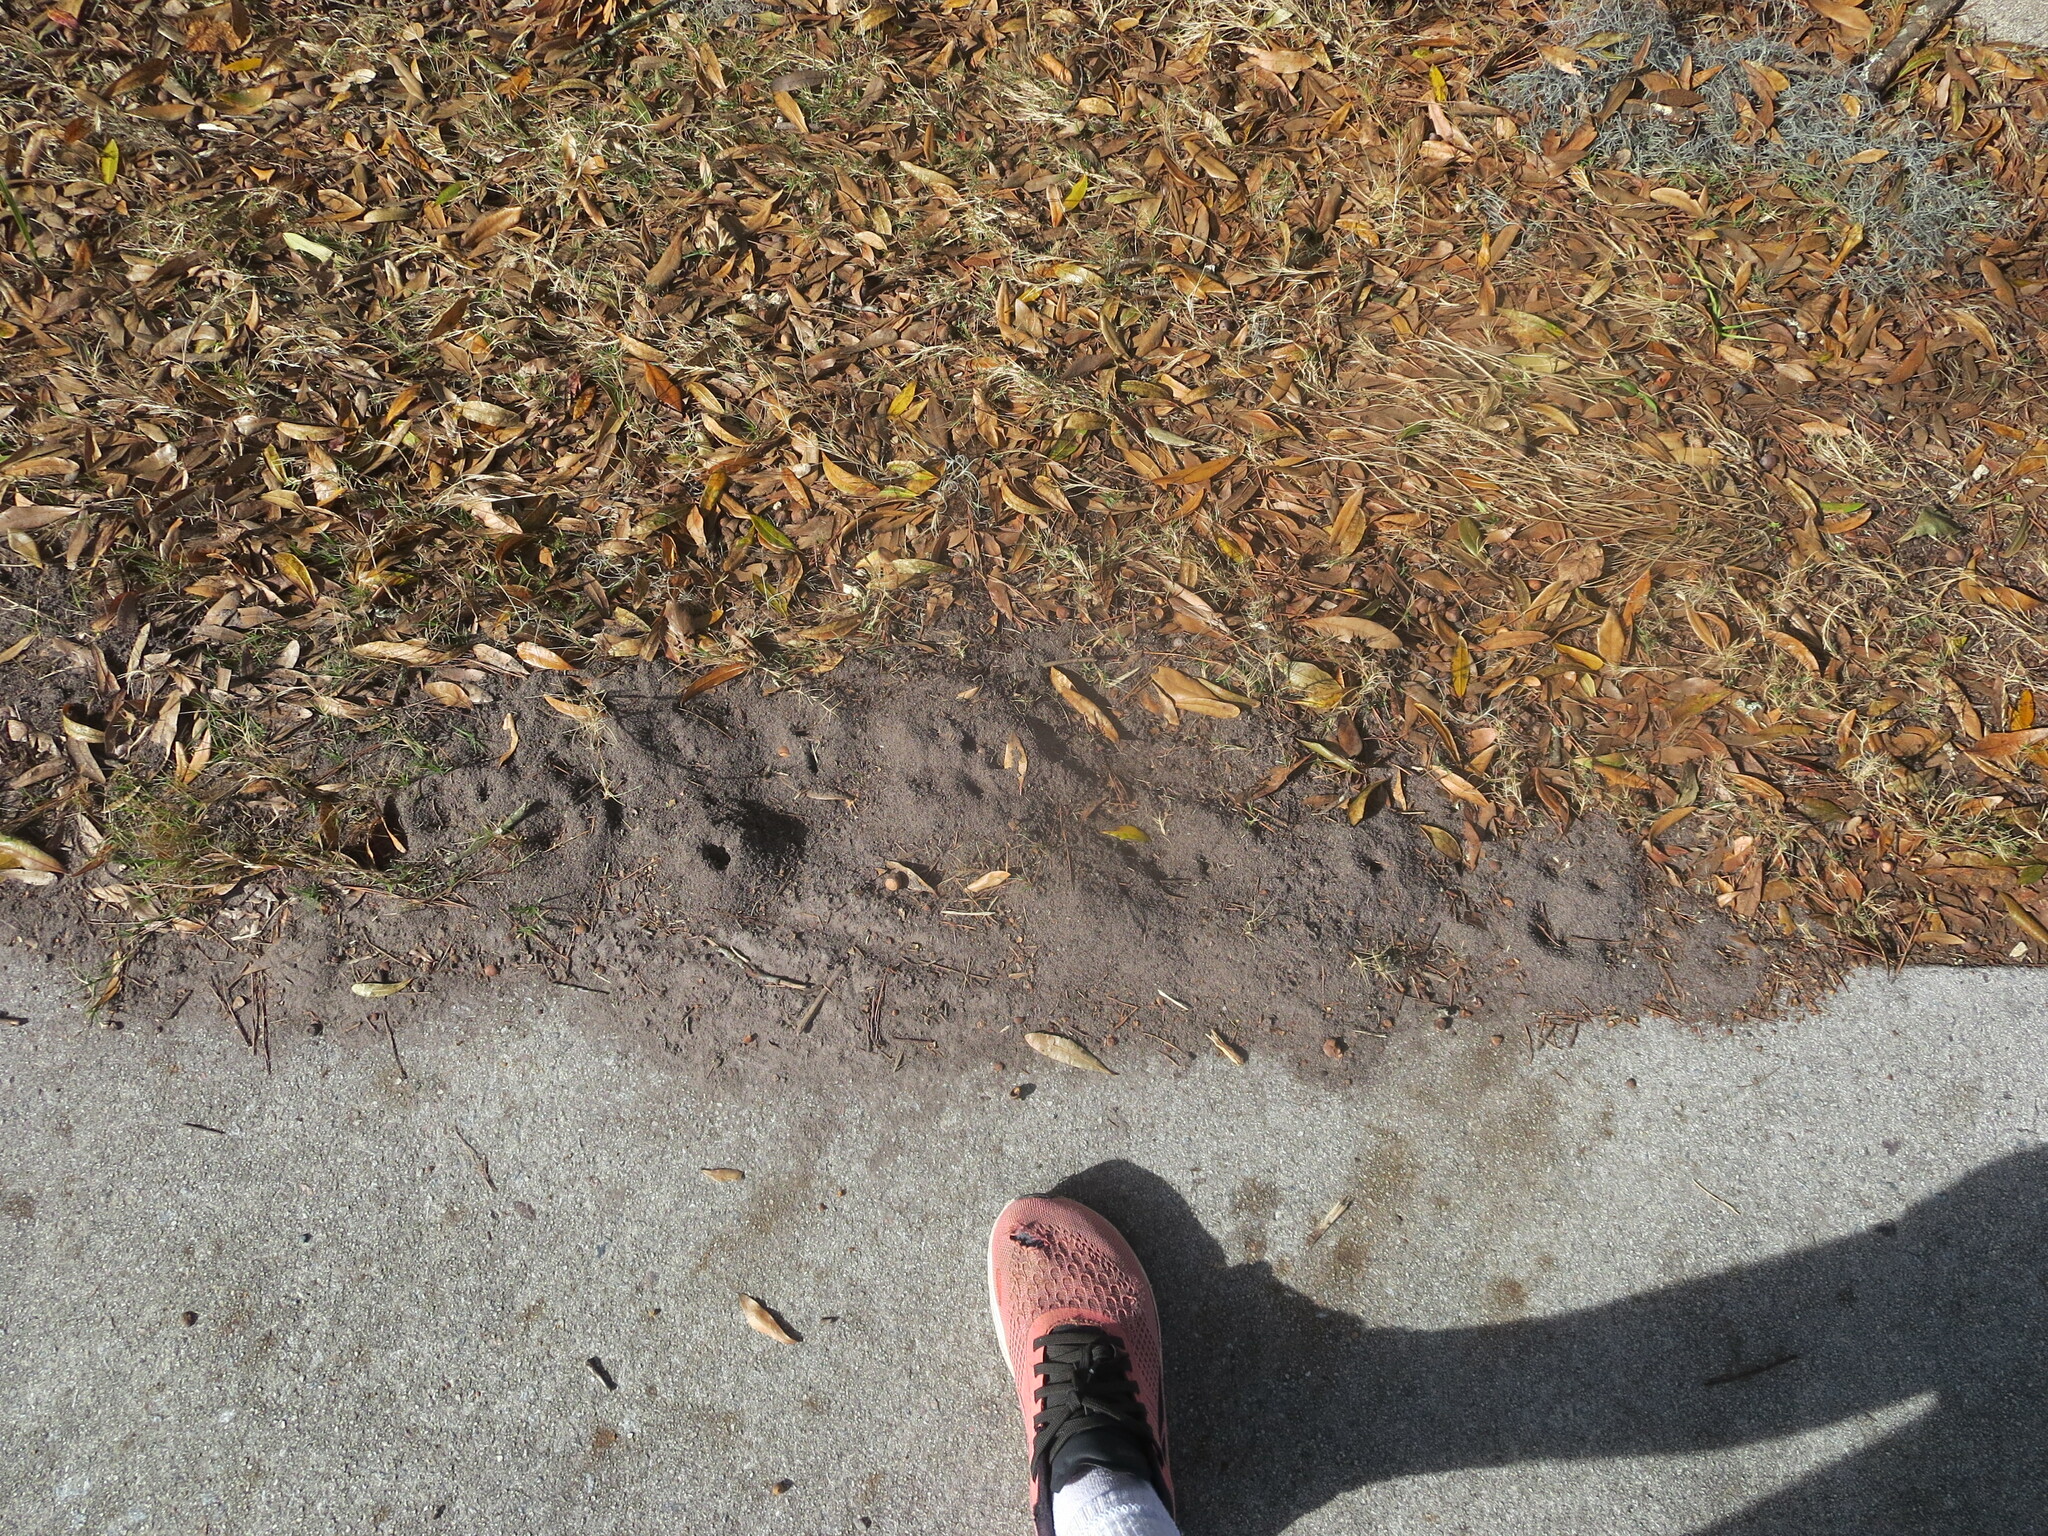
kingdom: Animalia
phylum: Arthropoda
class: Insecta
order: Hymenoptera
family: Formicidae
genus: Solenopsis
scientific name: Solenopsis invicta
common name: Red imported fire ant
